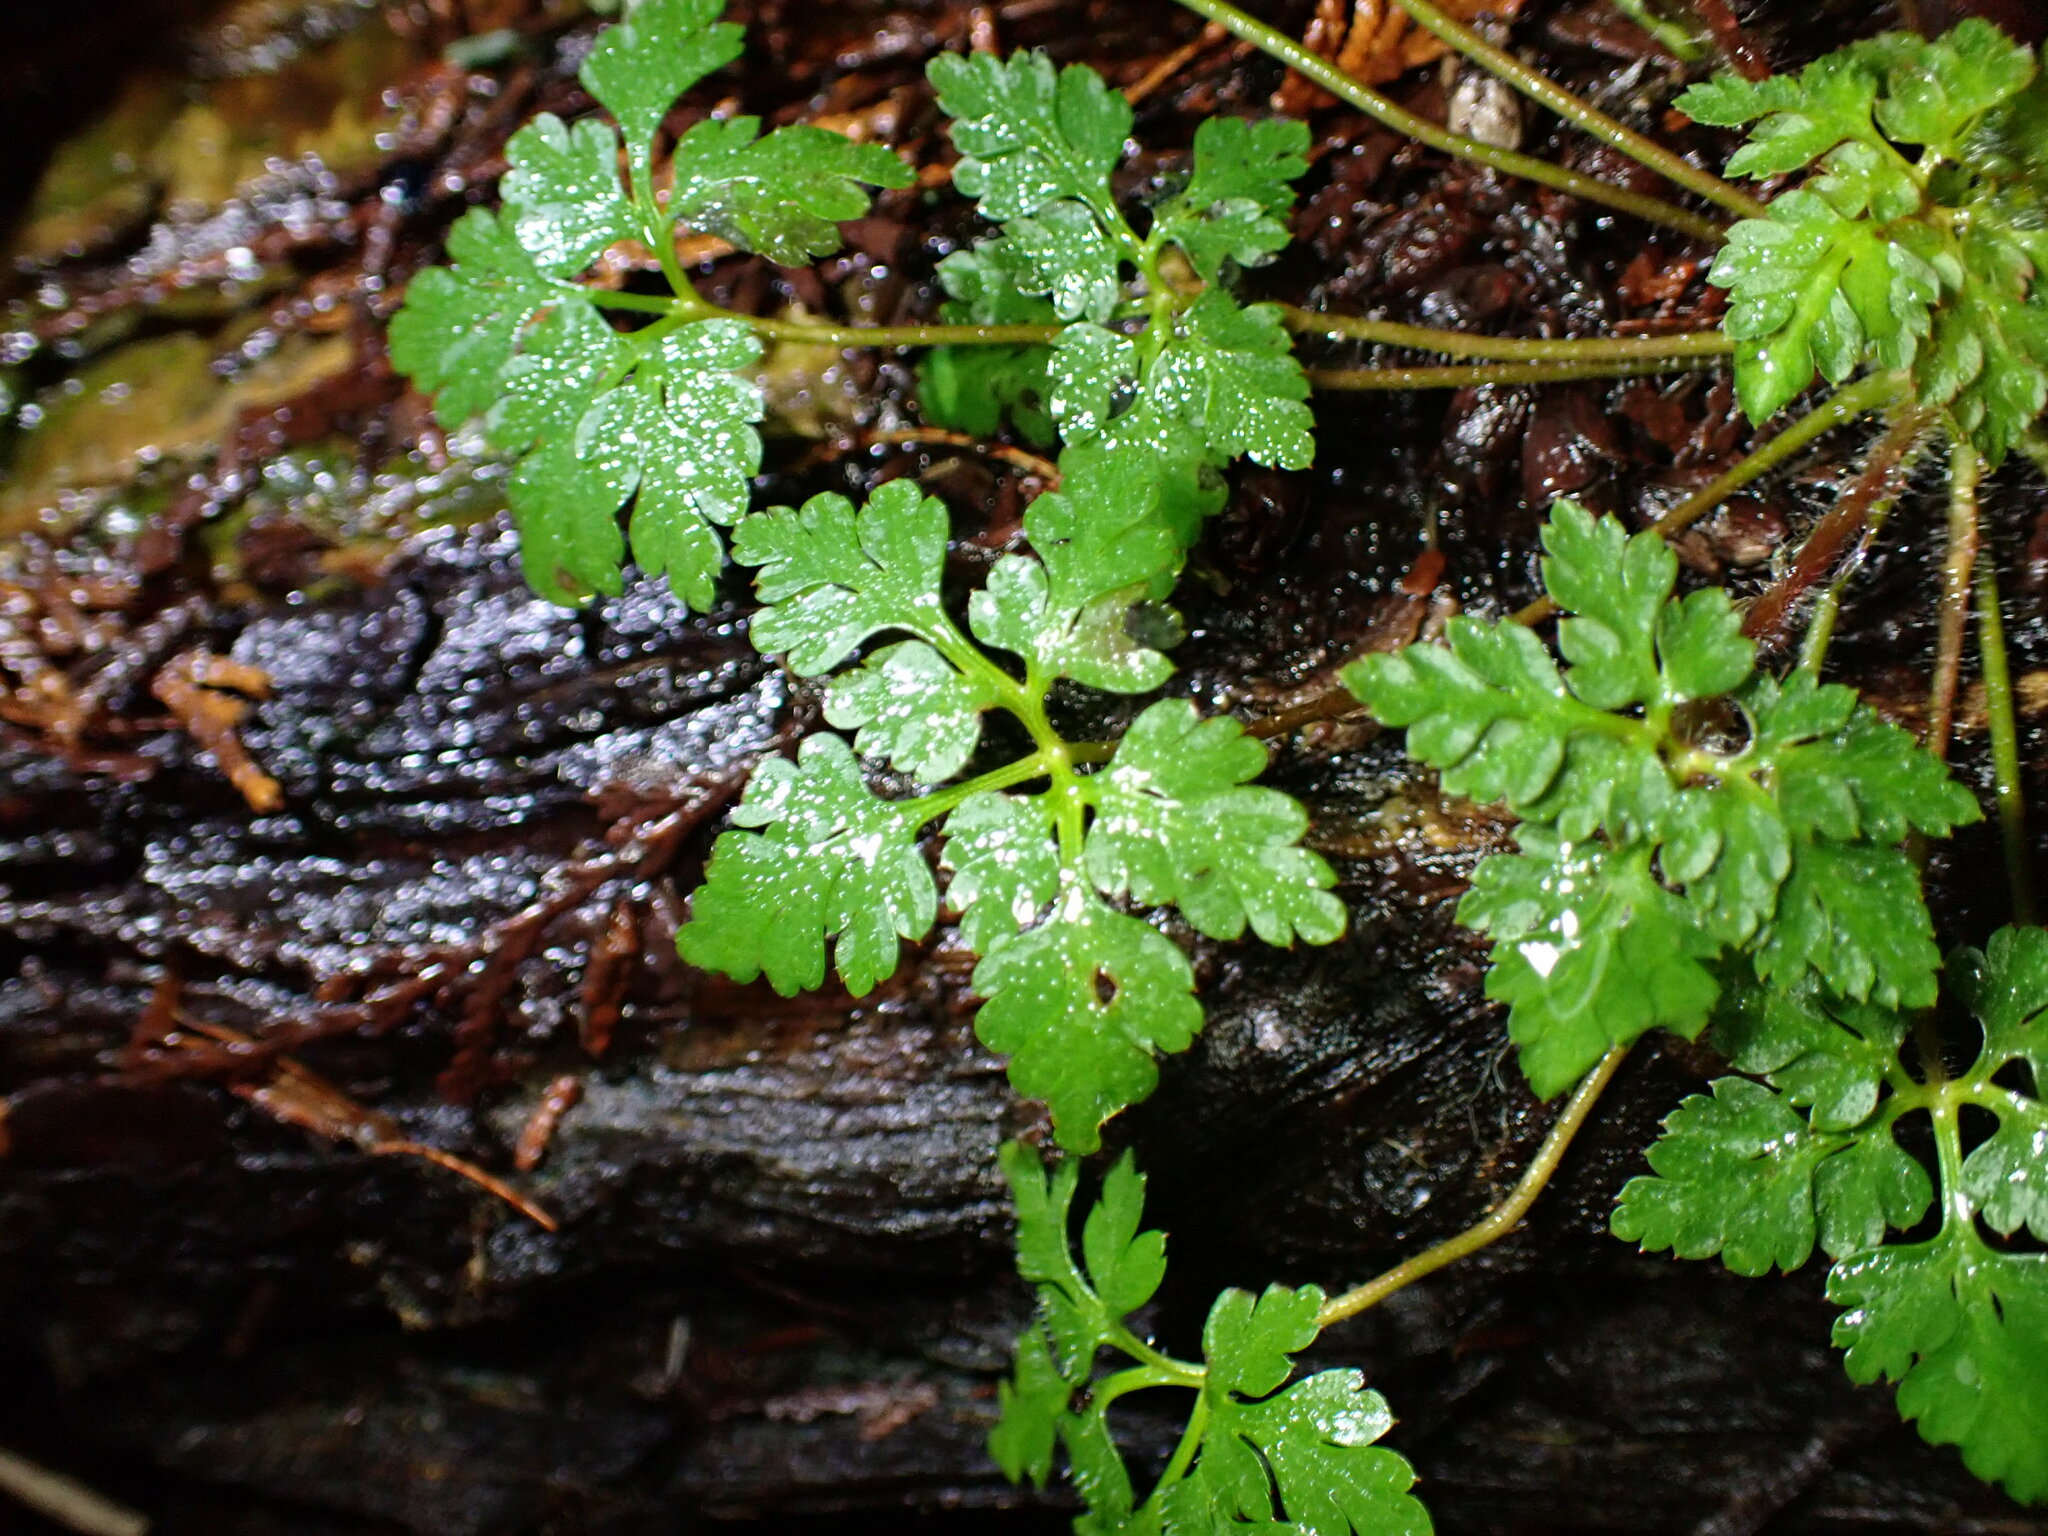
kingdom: Plantae
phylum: Tracheophyta
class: Magnoliopsida
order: Geraniales
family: Geraniaceae
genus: Geranium
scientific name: Geranium robertianum
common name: Herb-robert
